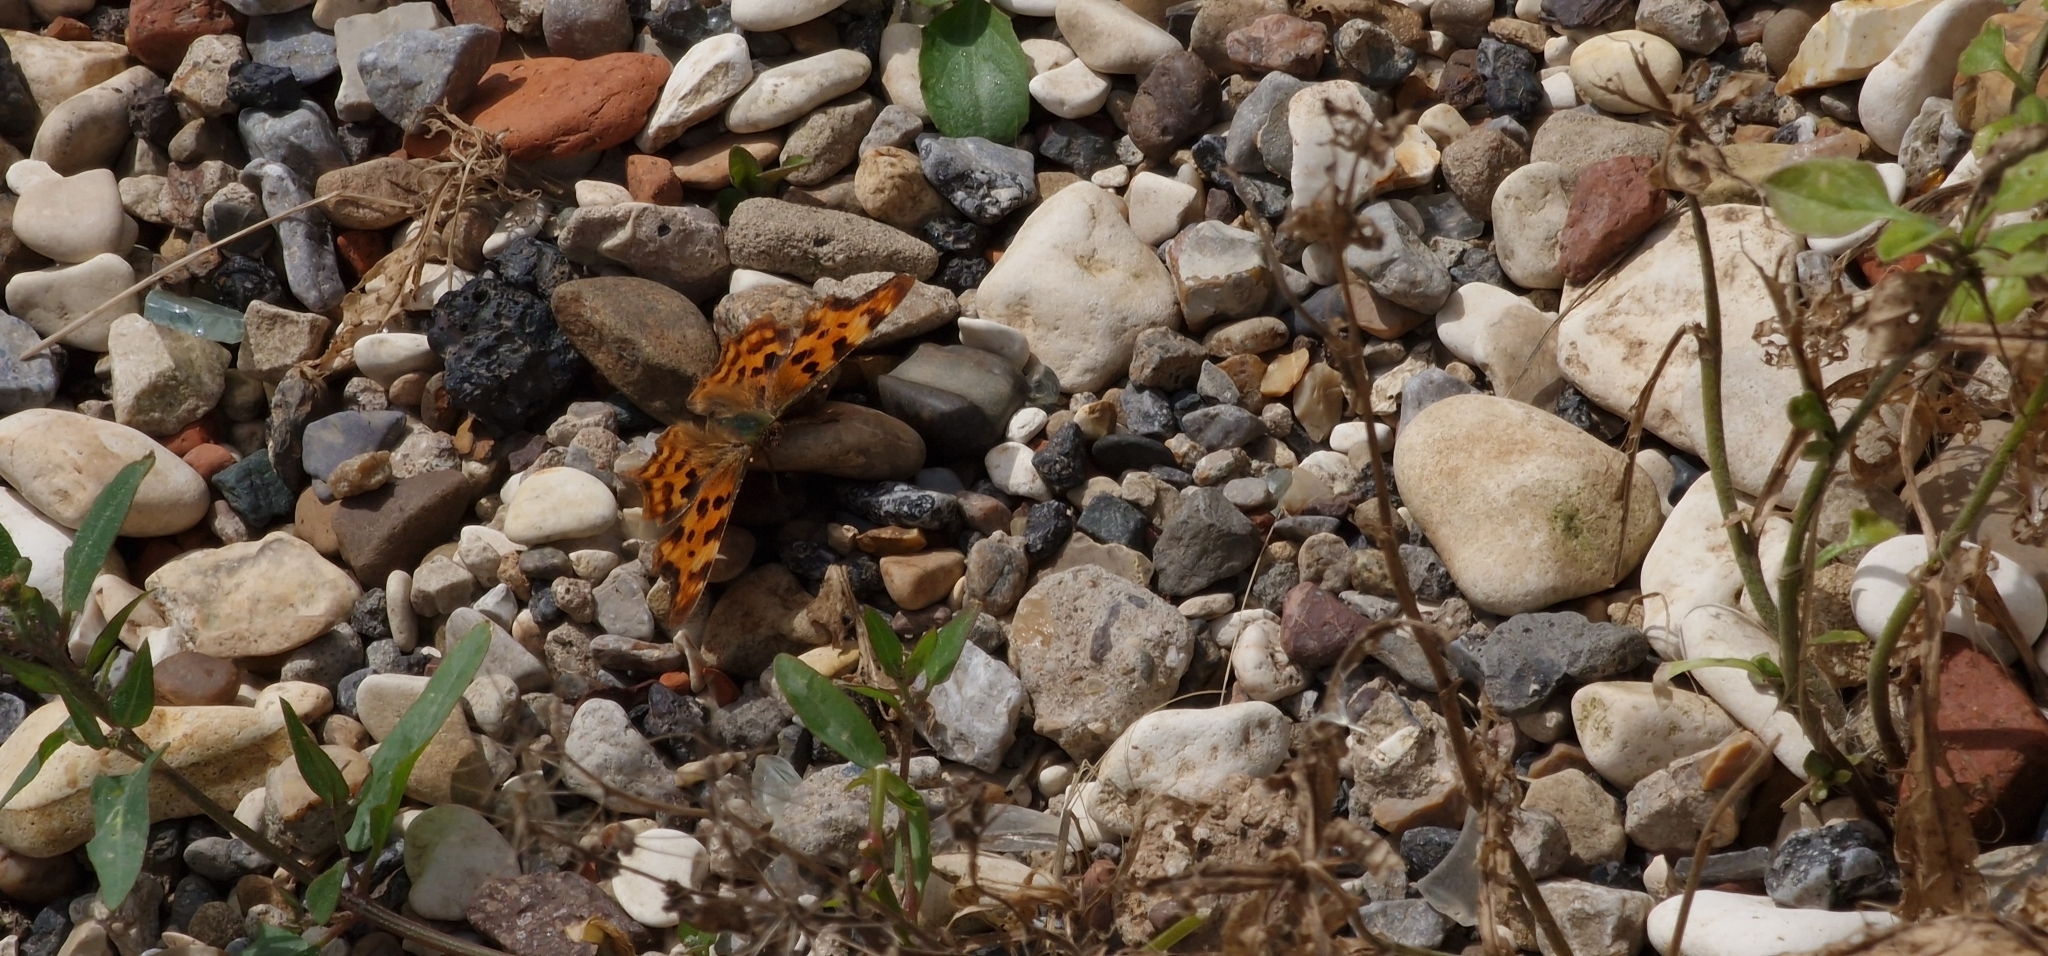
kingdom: Animalia
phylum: Arthropoda
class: Insecta
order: Lepidoptera
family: Nymphalidae
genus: Polygonia
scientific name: Polygonia c-album
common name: Comma
